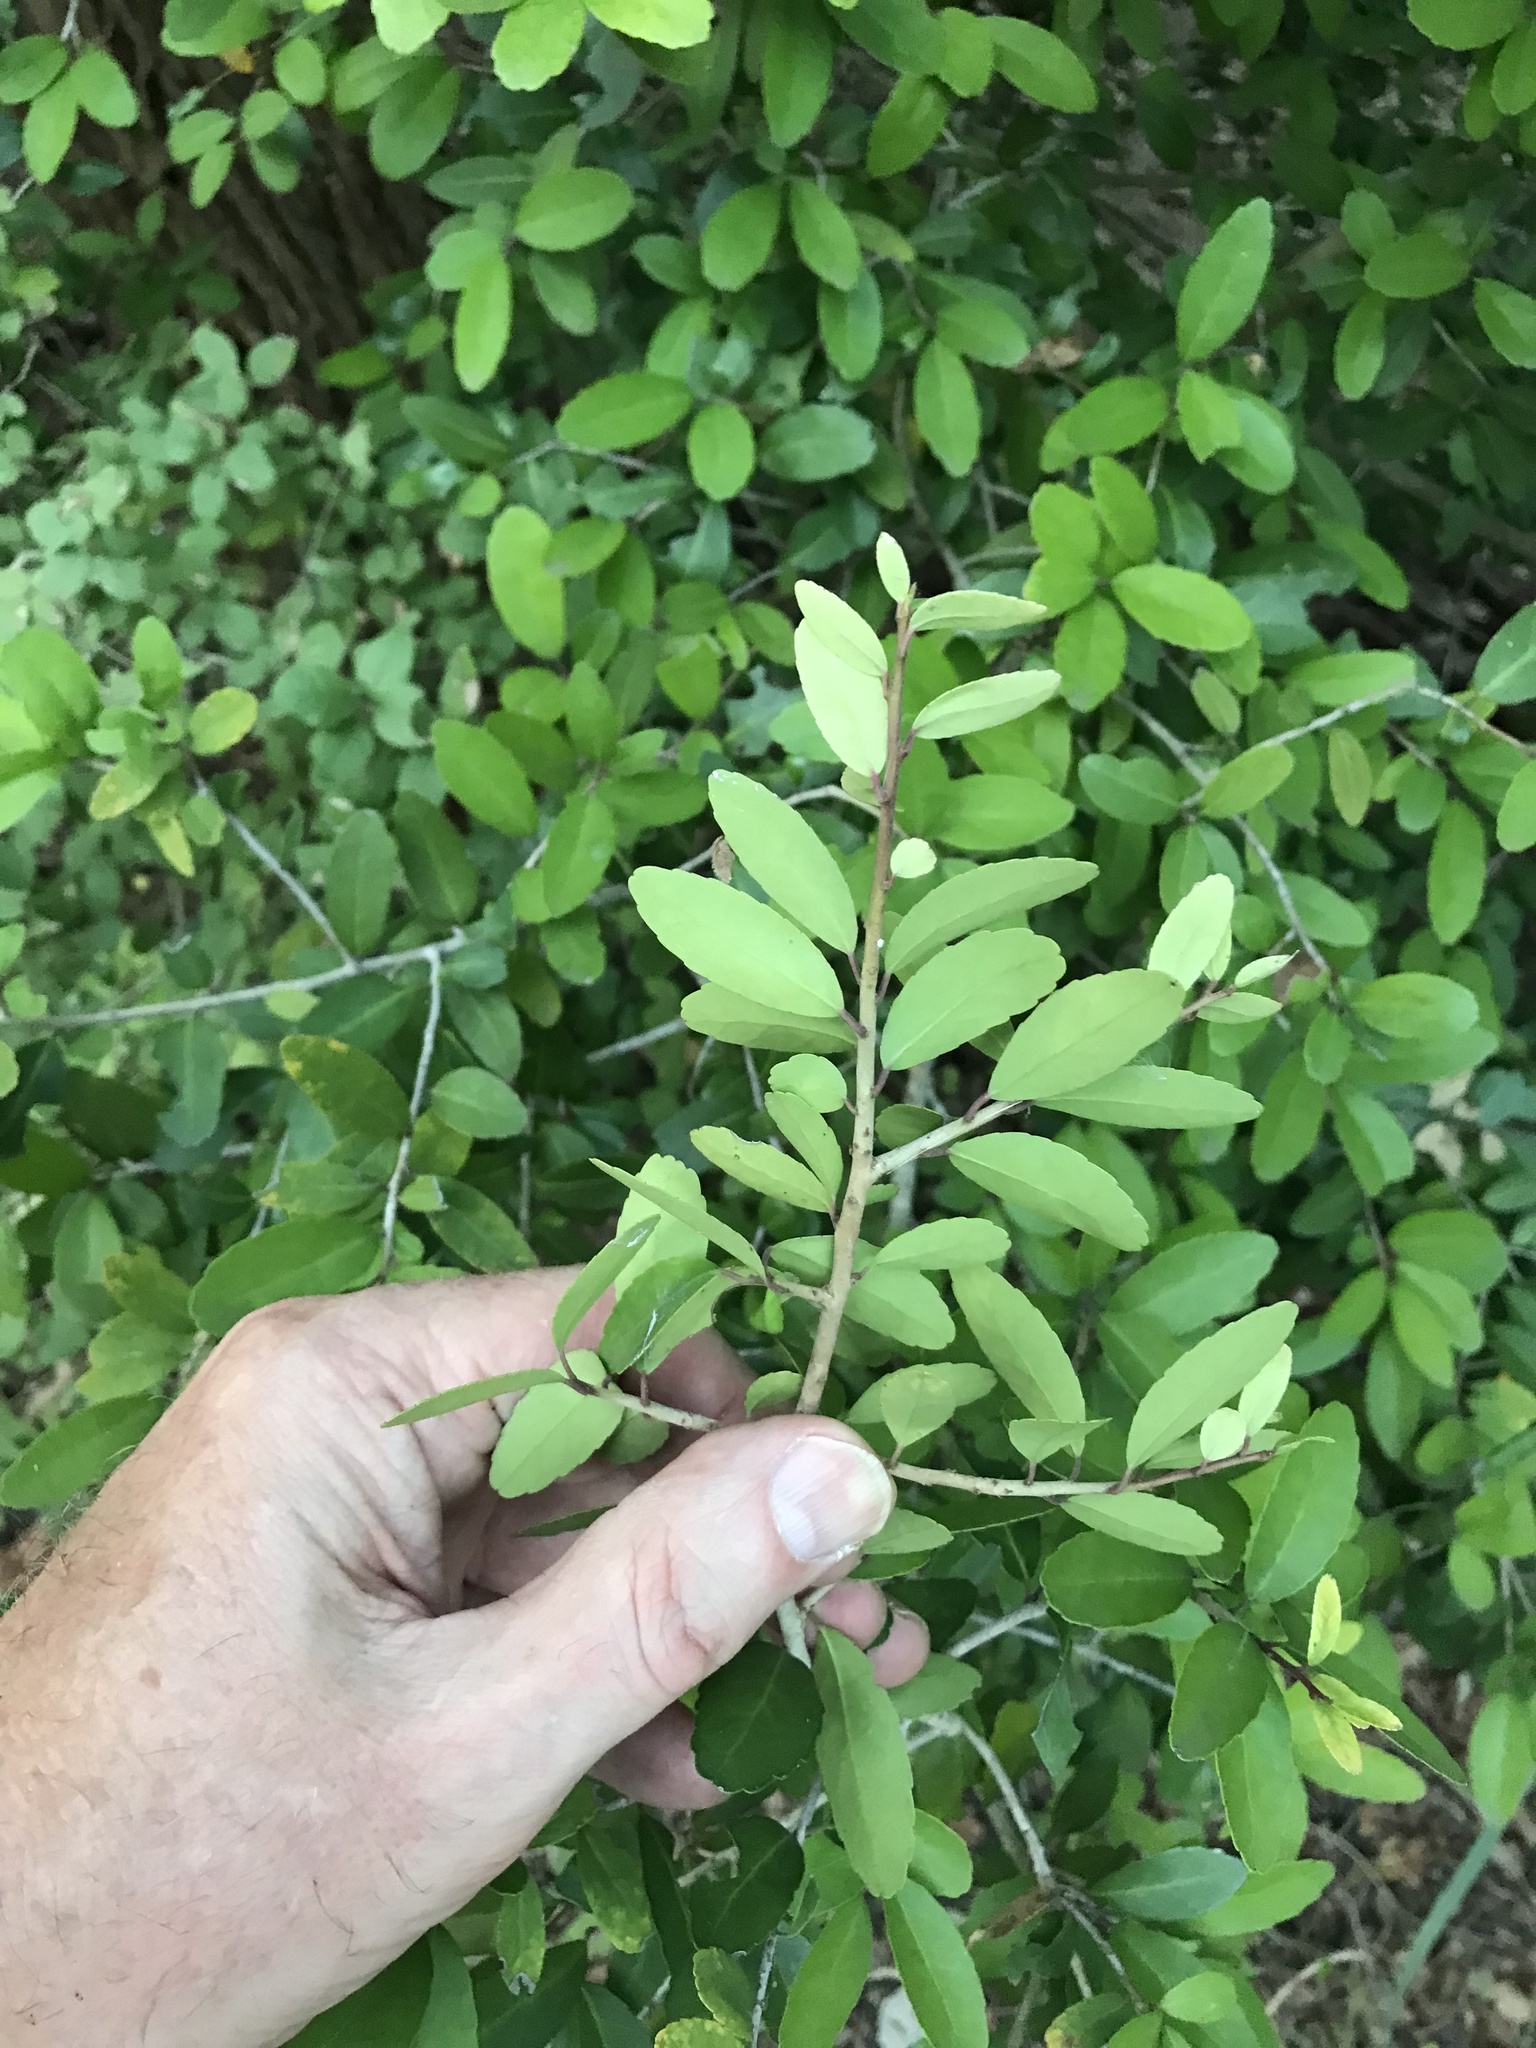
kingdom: Plantae
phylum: Tracheophyta
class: Magnoliopsida
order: Aquifoliales
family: Aquifoliaceae
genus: Ilex
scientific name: Ilex vomitoria
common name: Yaupon holly
